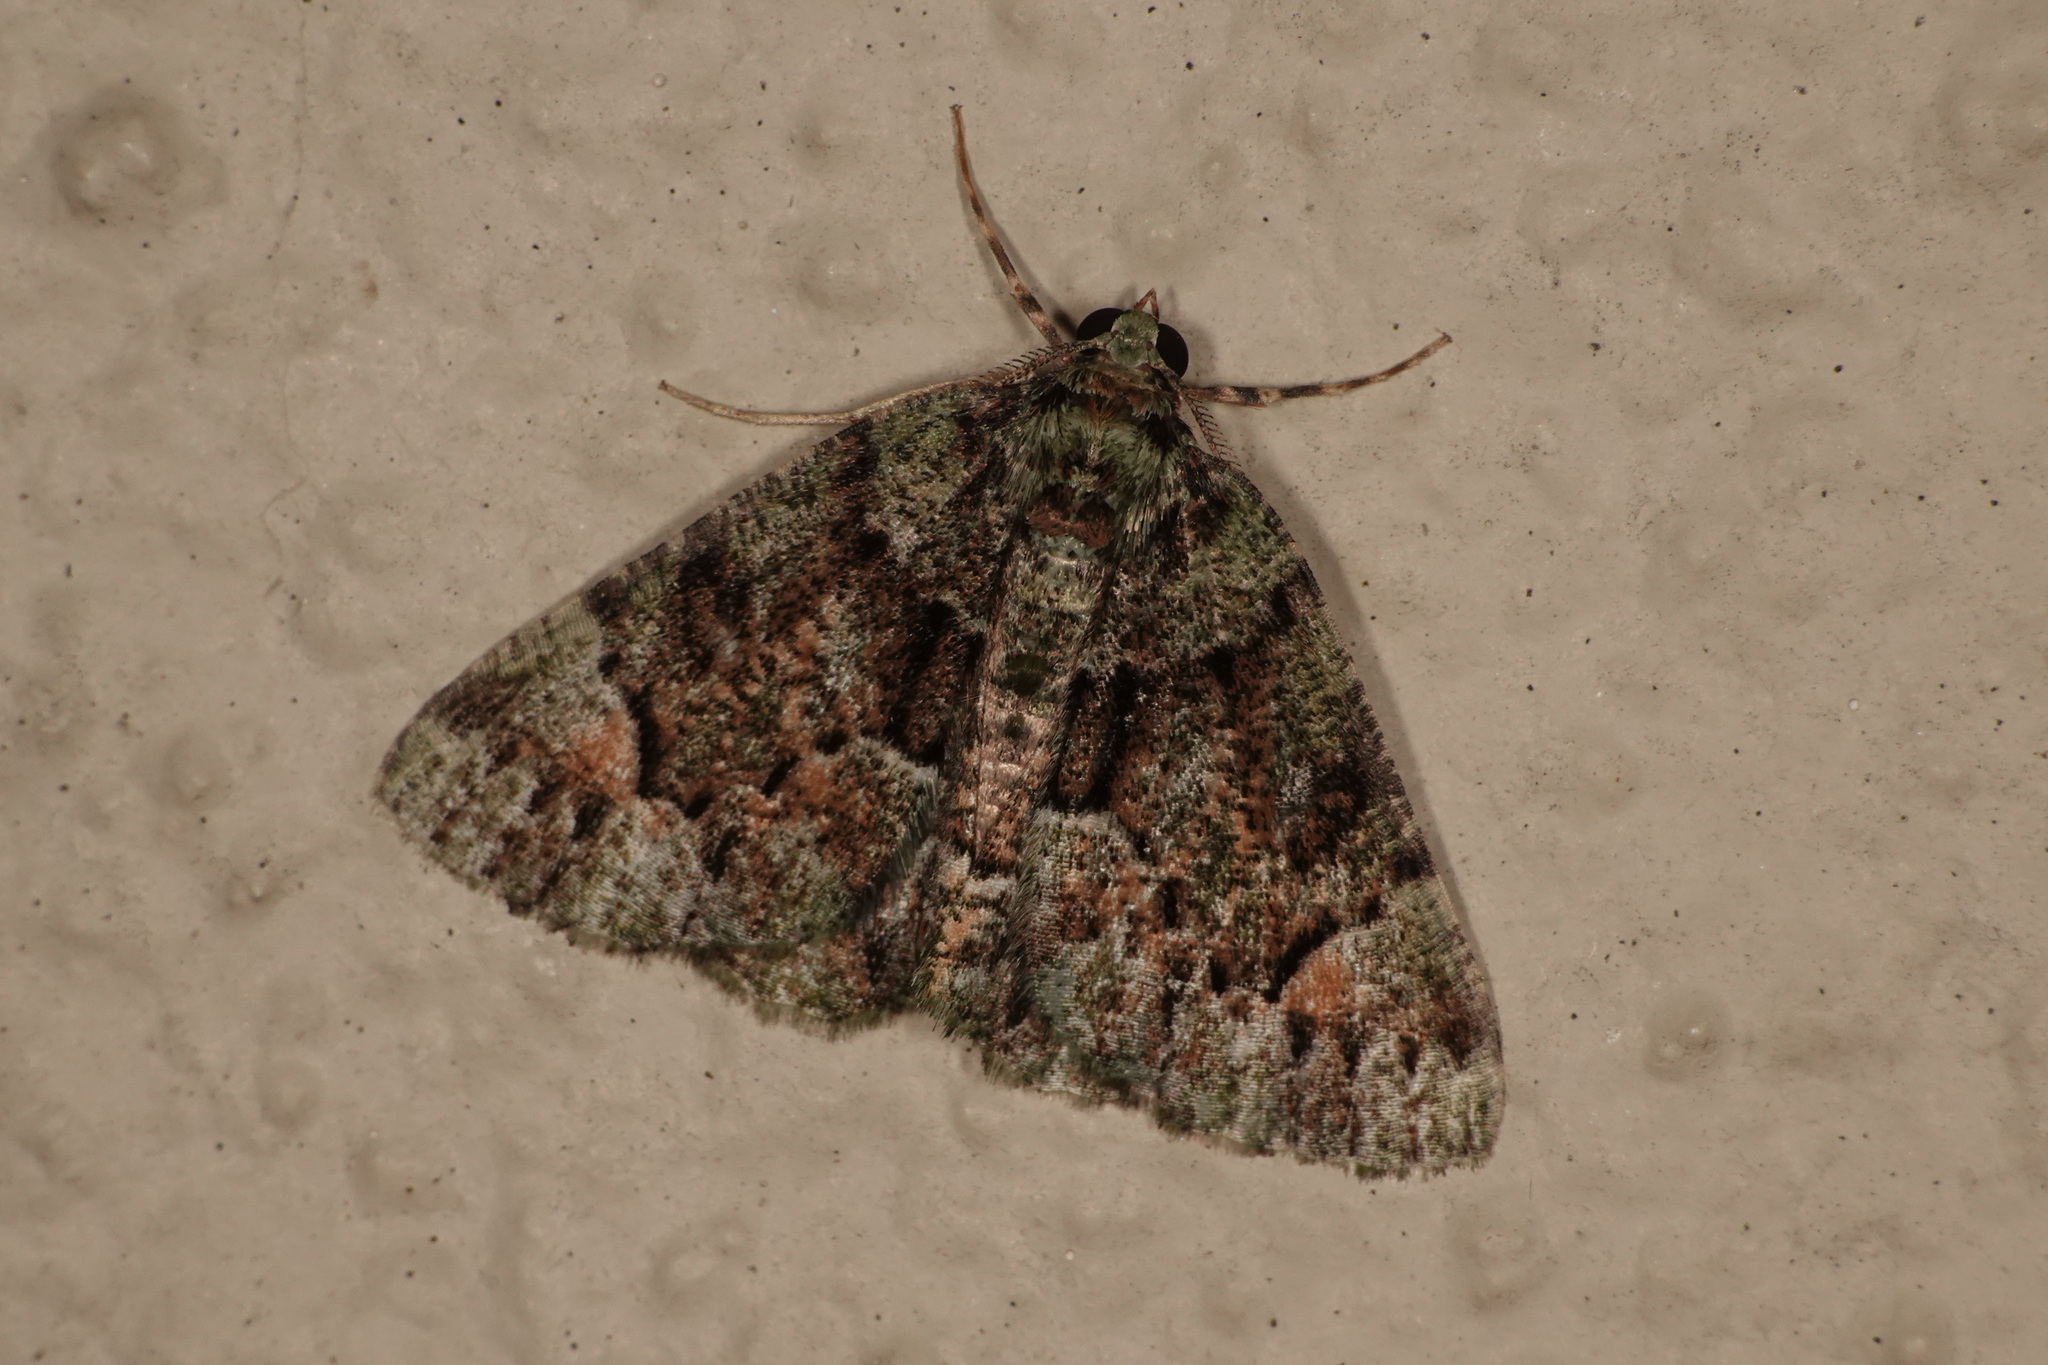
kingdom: Animalia
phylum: Arthropoda
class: Insecta
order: Lepidoptera
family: Geometridae
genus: Aeolochroma
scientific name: Aeolochroma metarhodata
